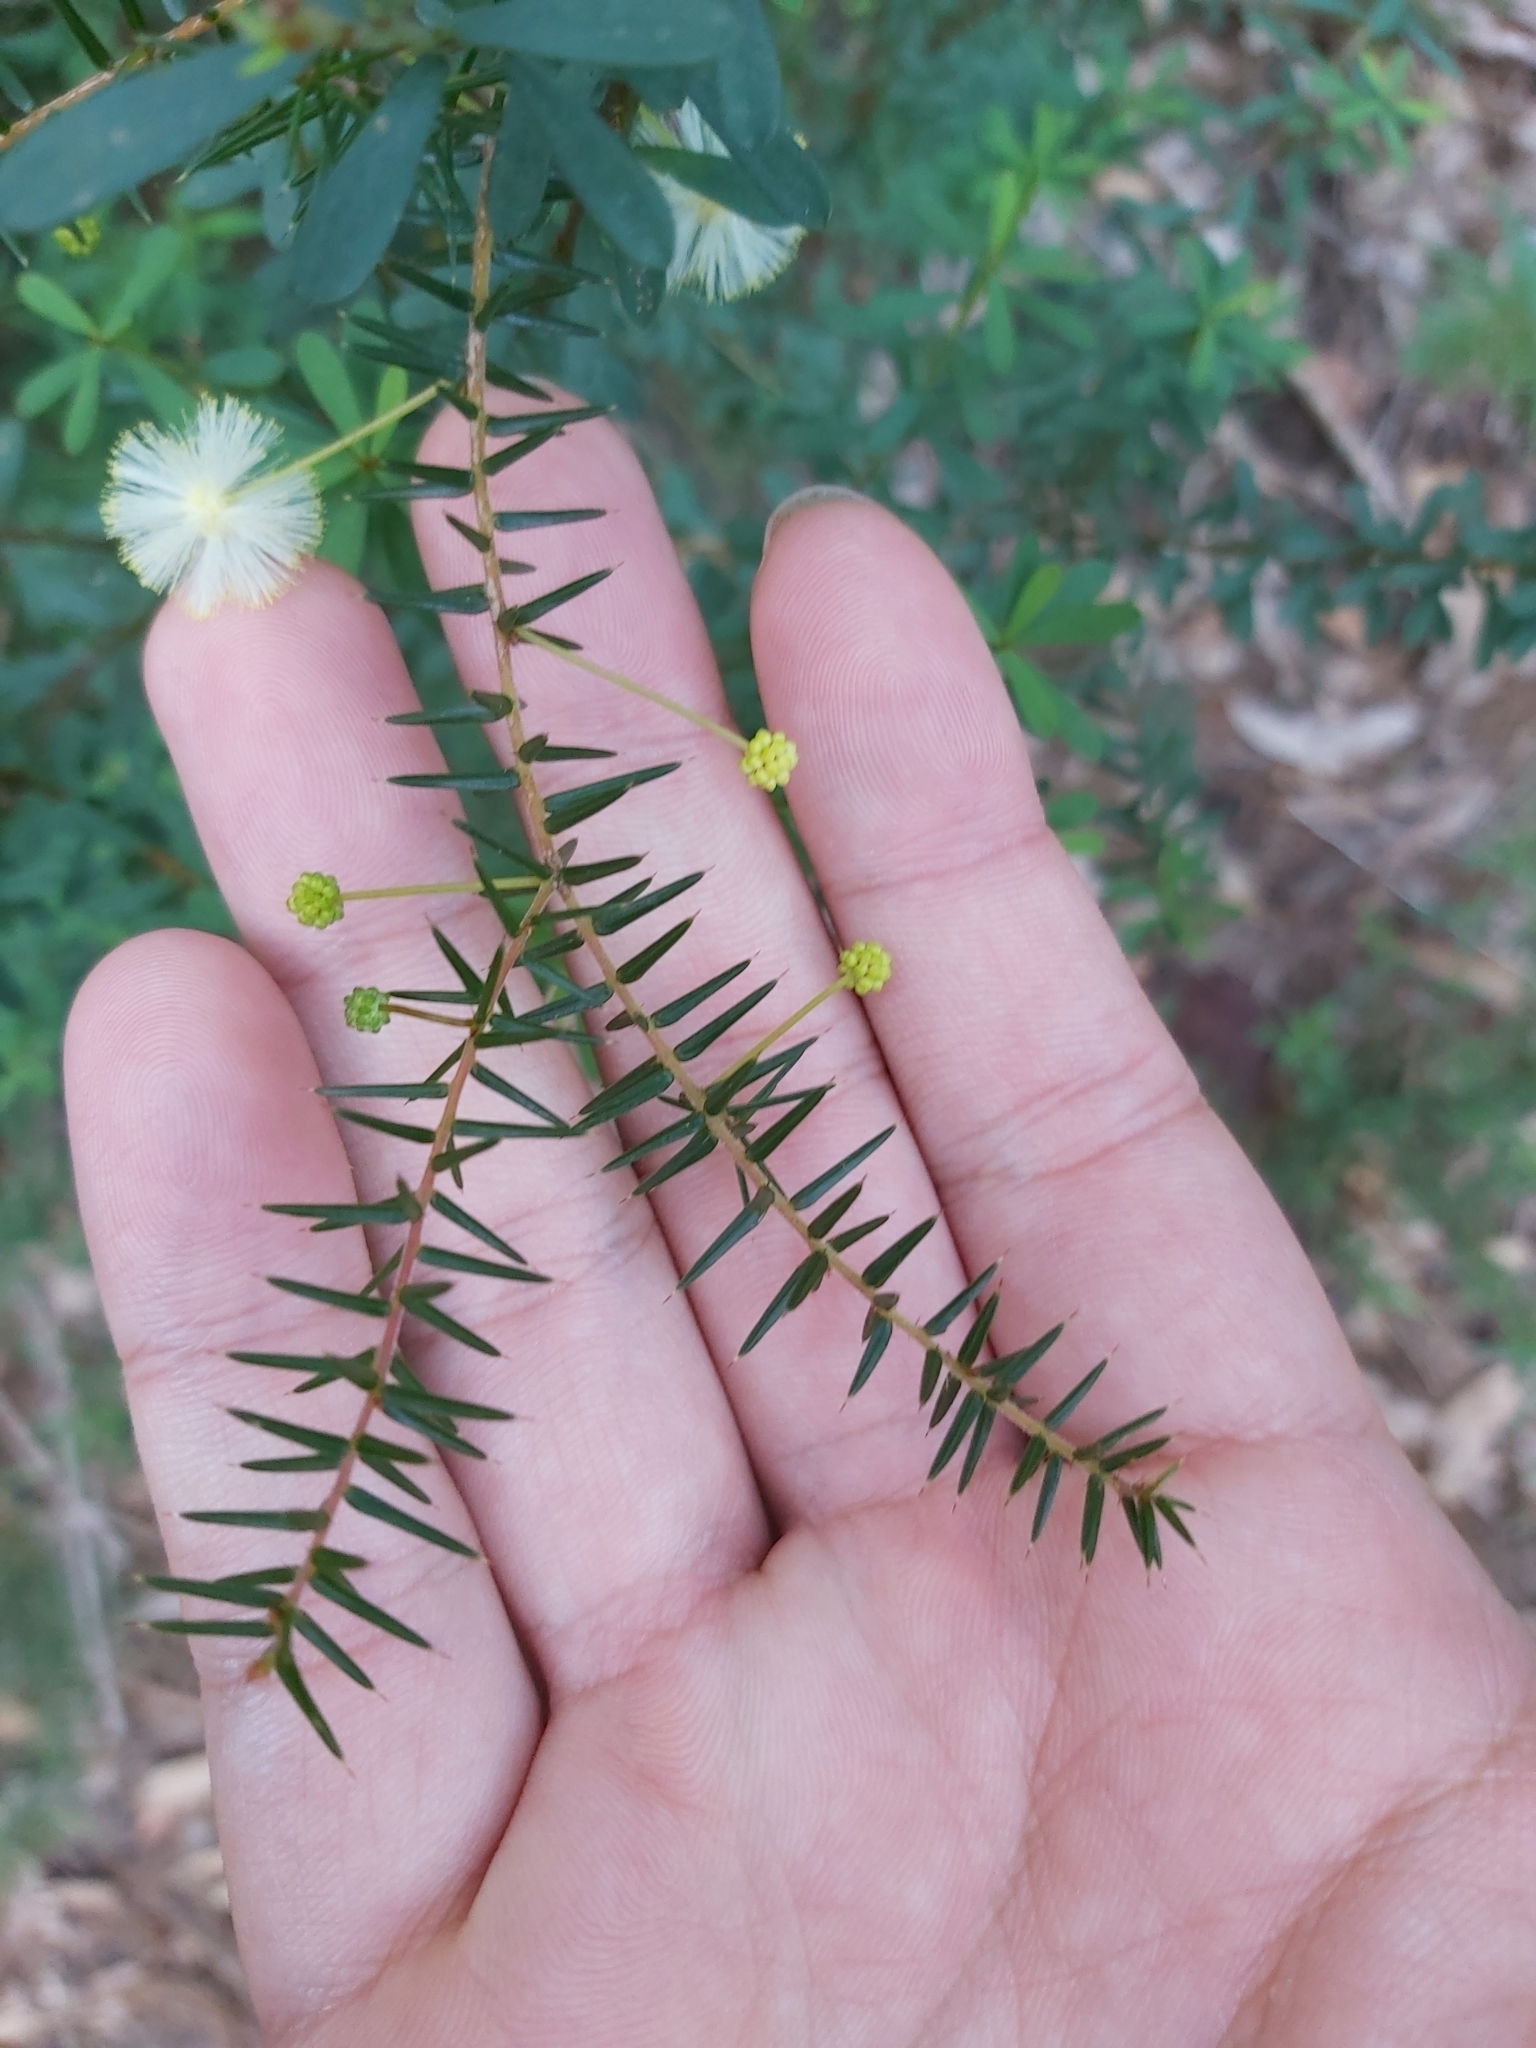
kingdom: Plantae
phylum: Tracheophyta
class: Magnoliopsida
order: Fabales
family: Fabaceae
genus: Acacia
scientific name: Acacia ulicifolia
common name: Juniper wattle
